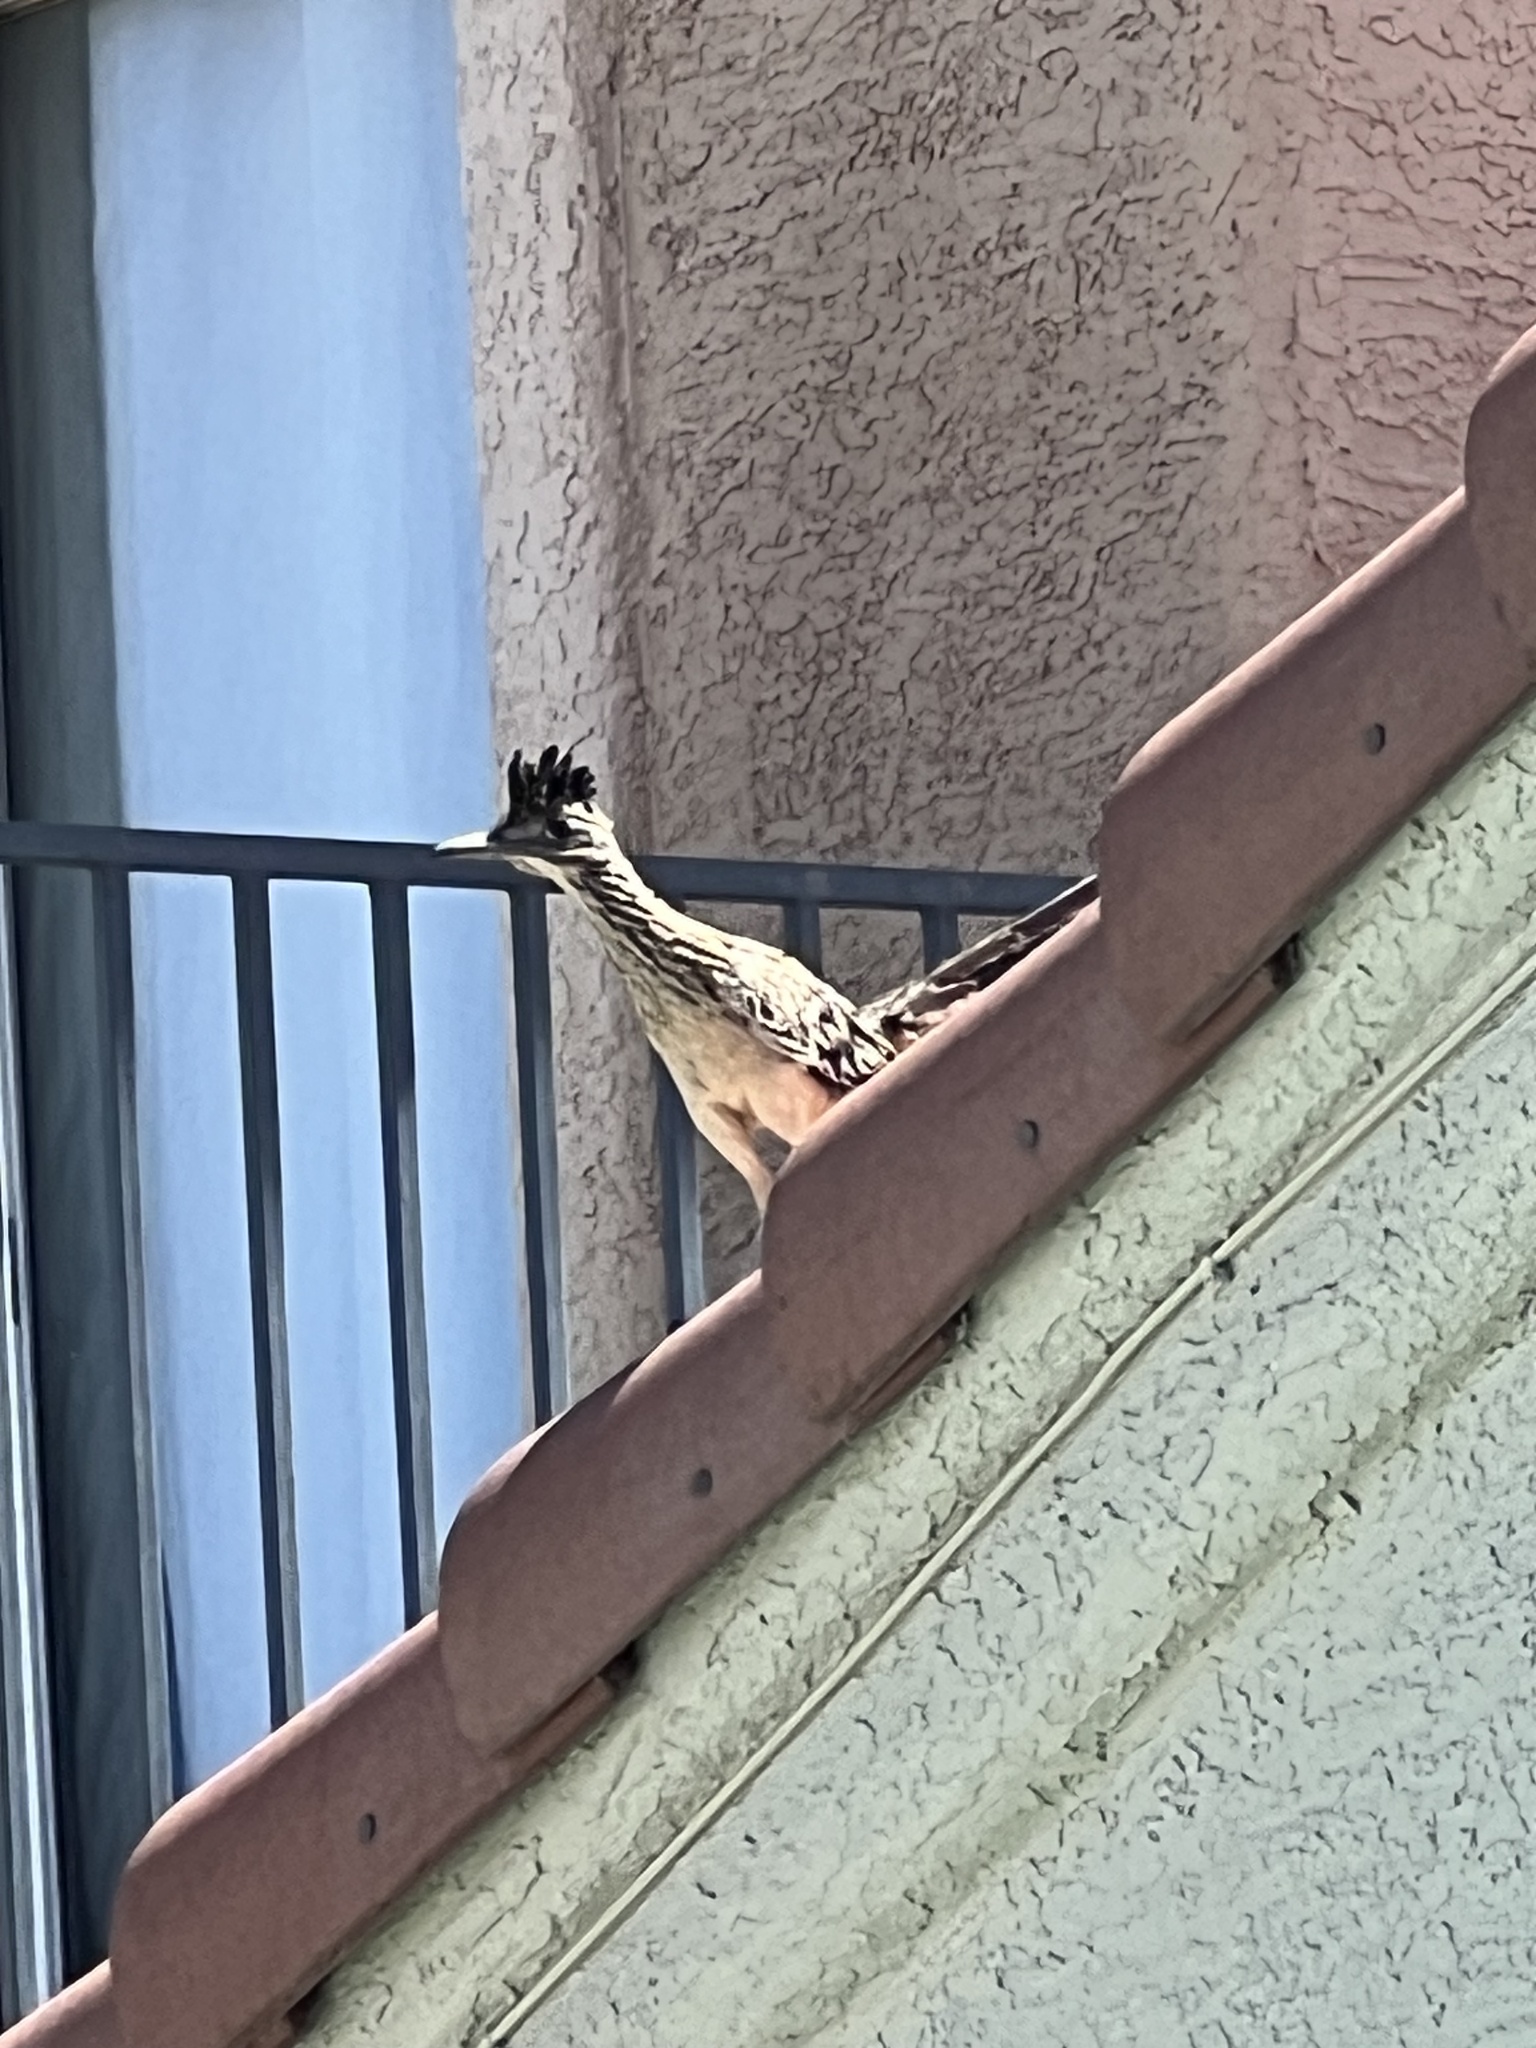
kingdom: Animalia
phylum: Chordata
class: Aves
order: Cuculiformes
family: Cuculidae
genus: Geococcyx
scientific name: Geococcyx californianus
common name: Greater roadrunner
